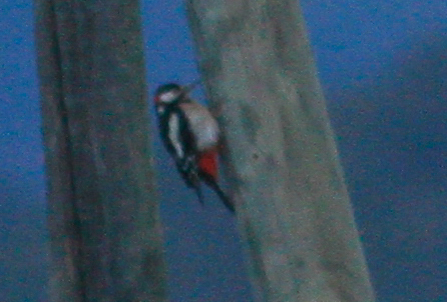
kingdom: Animalia
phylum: Chordata
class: Aves
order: Piciformes
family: Picidae
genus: Dendrocopos
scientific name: Dendrocopos major
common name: Great spotted woodpecker
